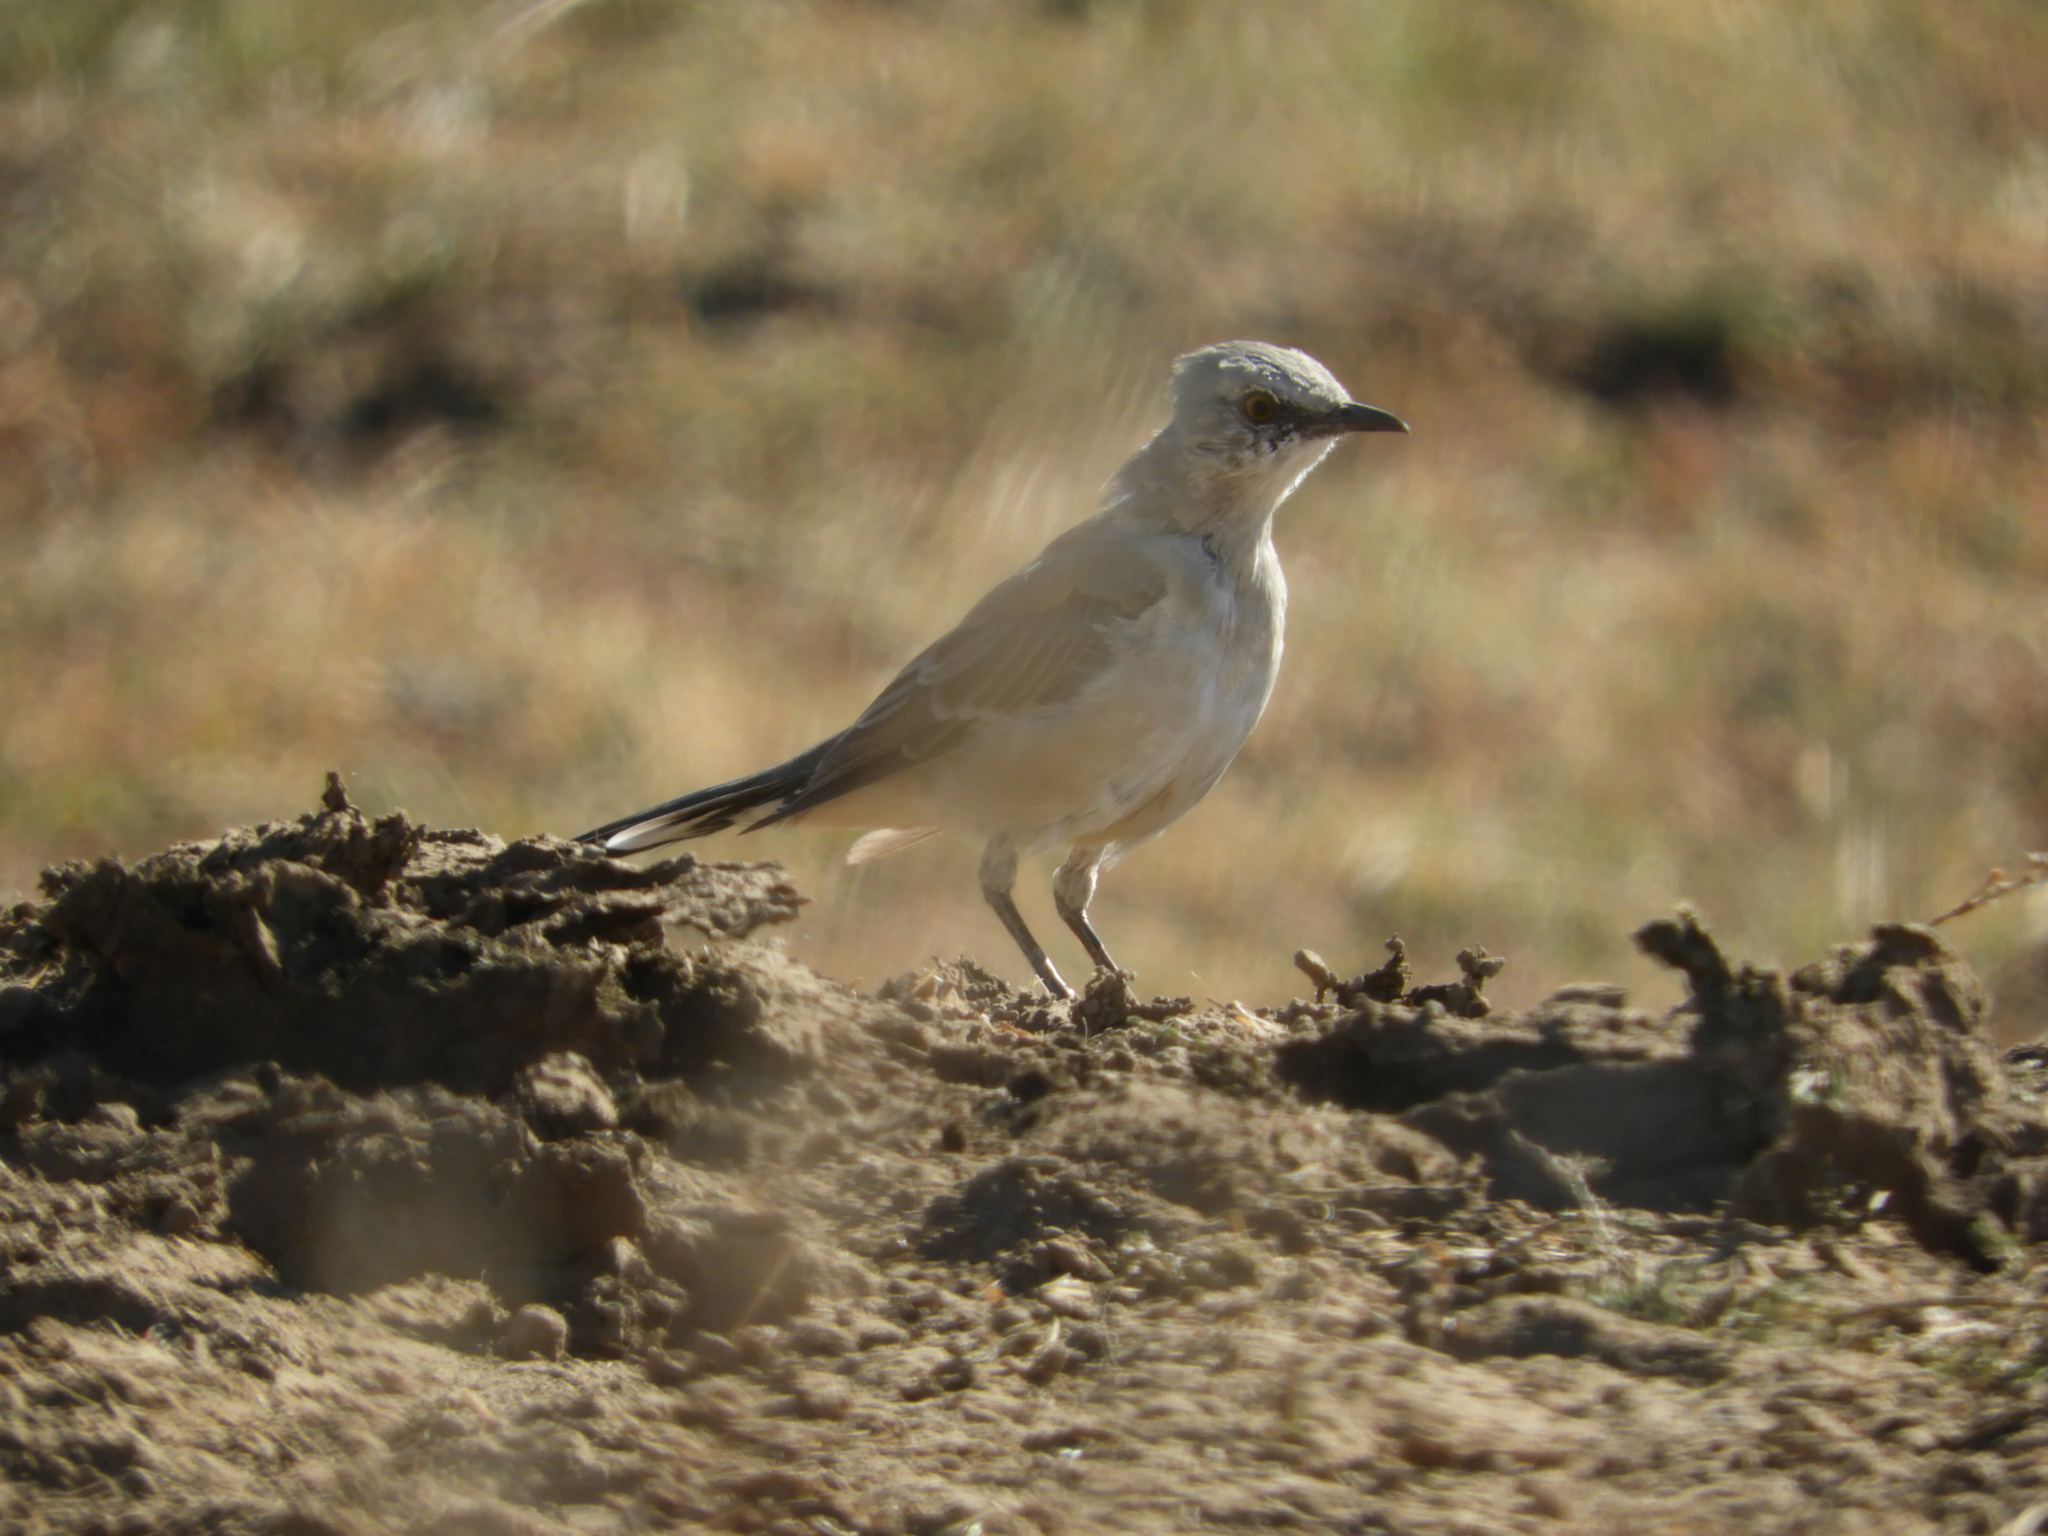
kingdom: Animalia
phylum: Chordata
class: Aves
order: Passeriformes
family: Mimidae
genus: Mimus
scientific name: Mimus polyglottos
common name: Northern mockingbird
